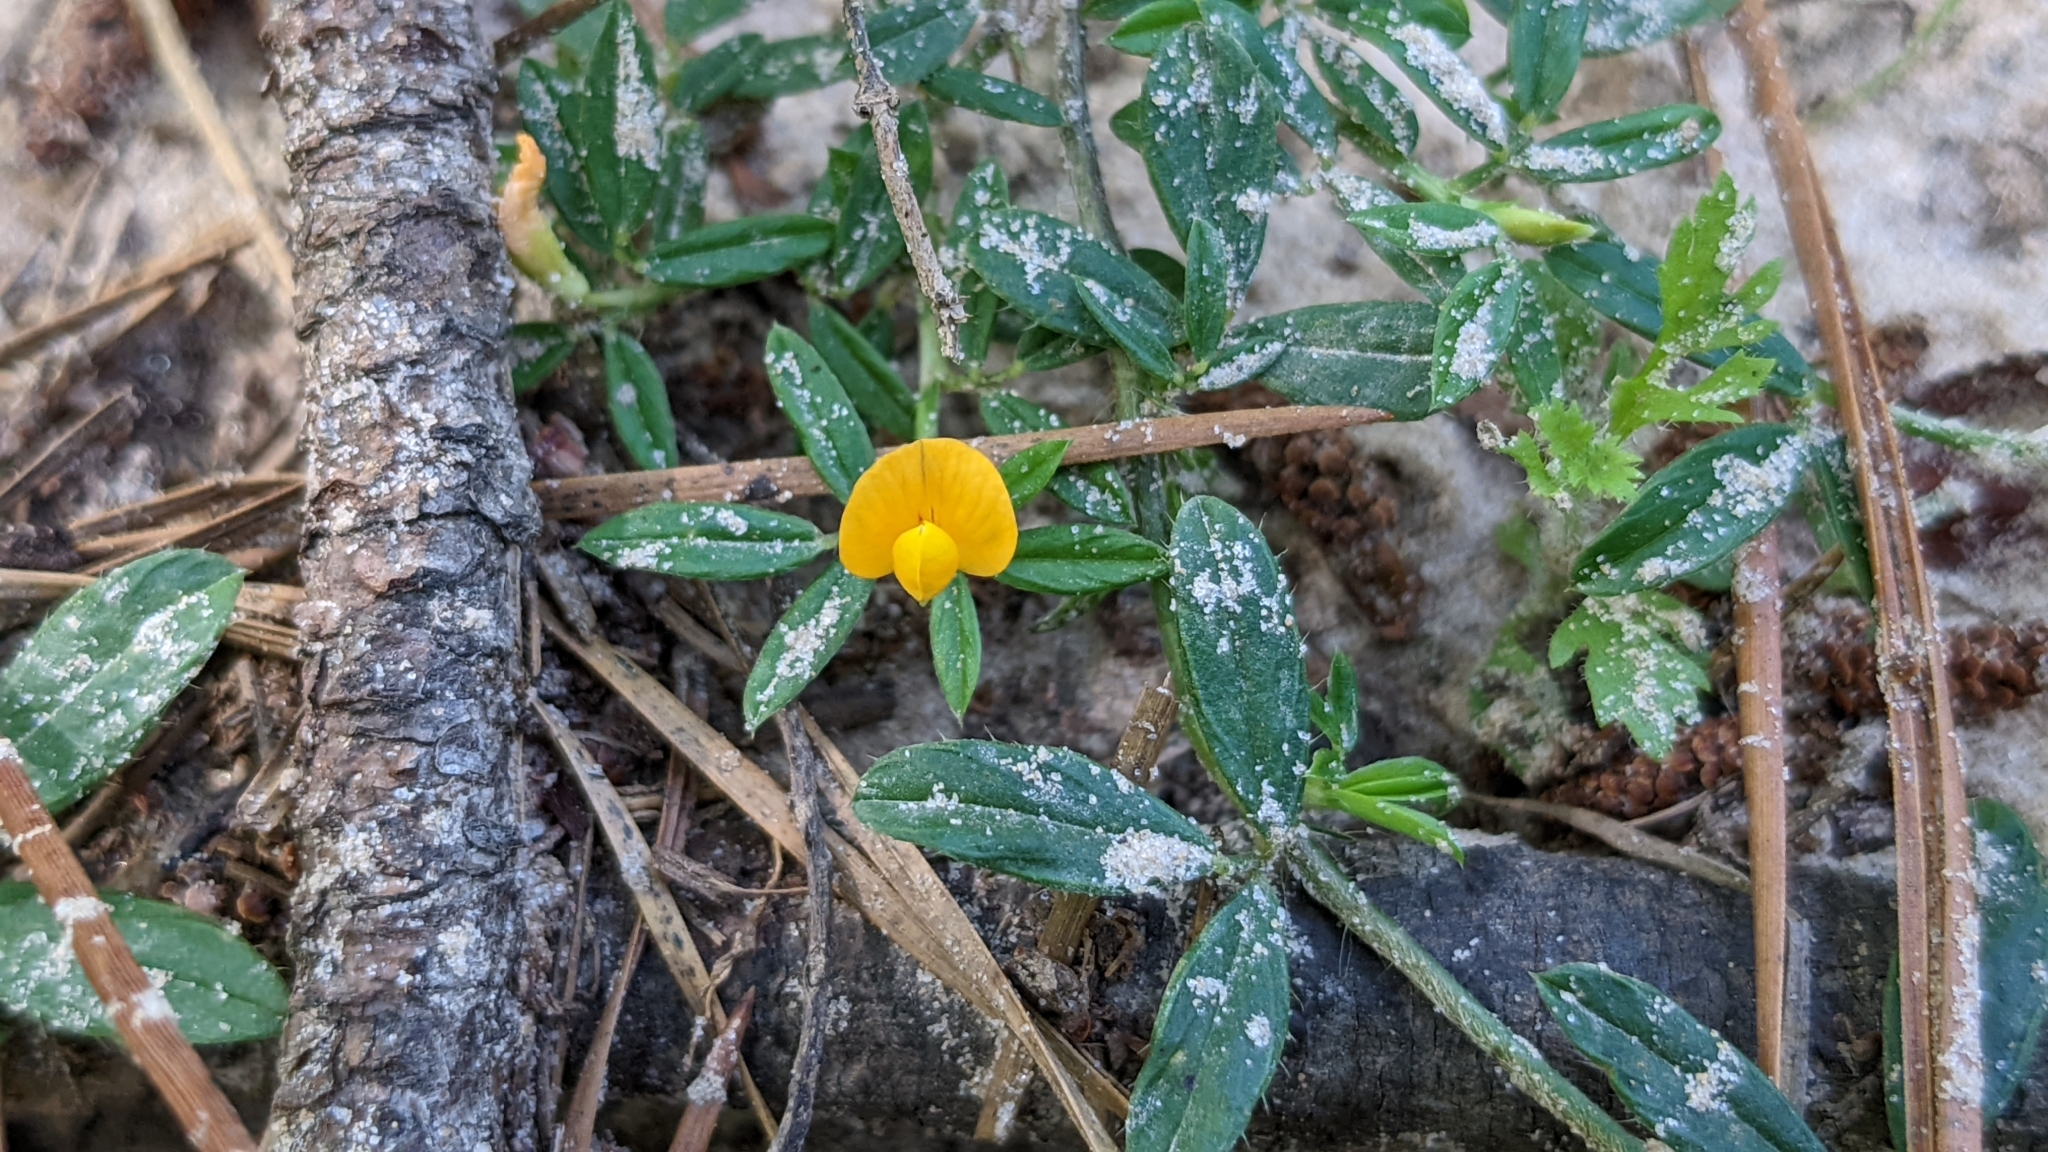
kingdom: Plantae
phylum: Tracheophyta
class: Magnoliopsida
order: Fabales
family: Fabaceae
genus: Stylosanthes
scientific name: Stylosanthes biflora
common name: Two-flower pencil-flower
